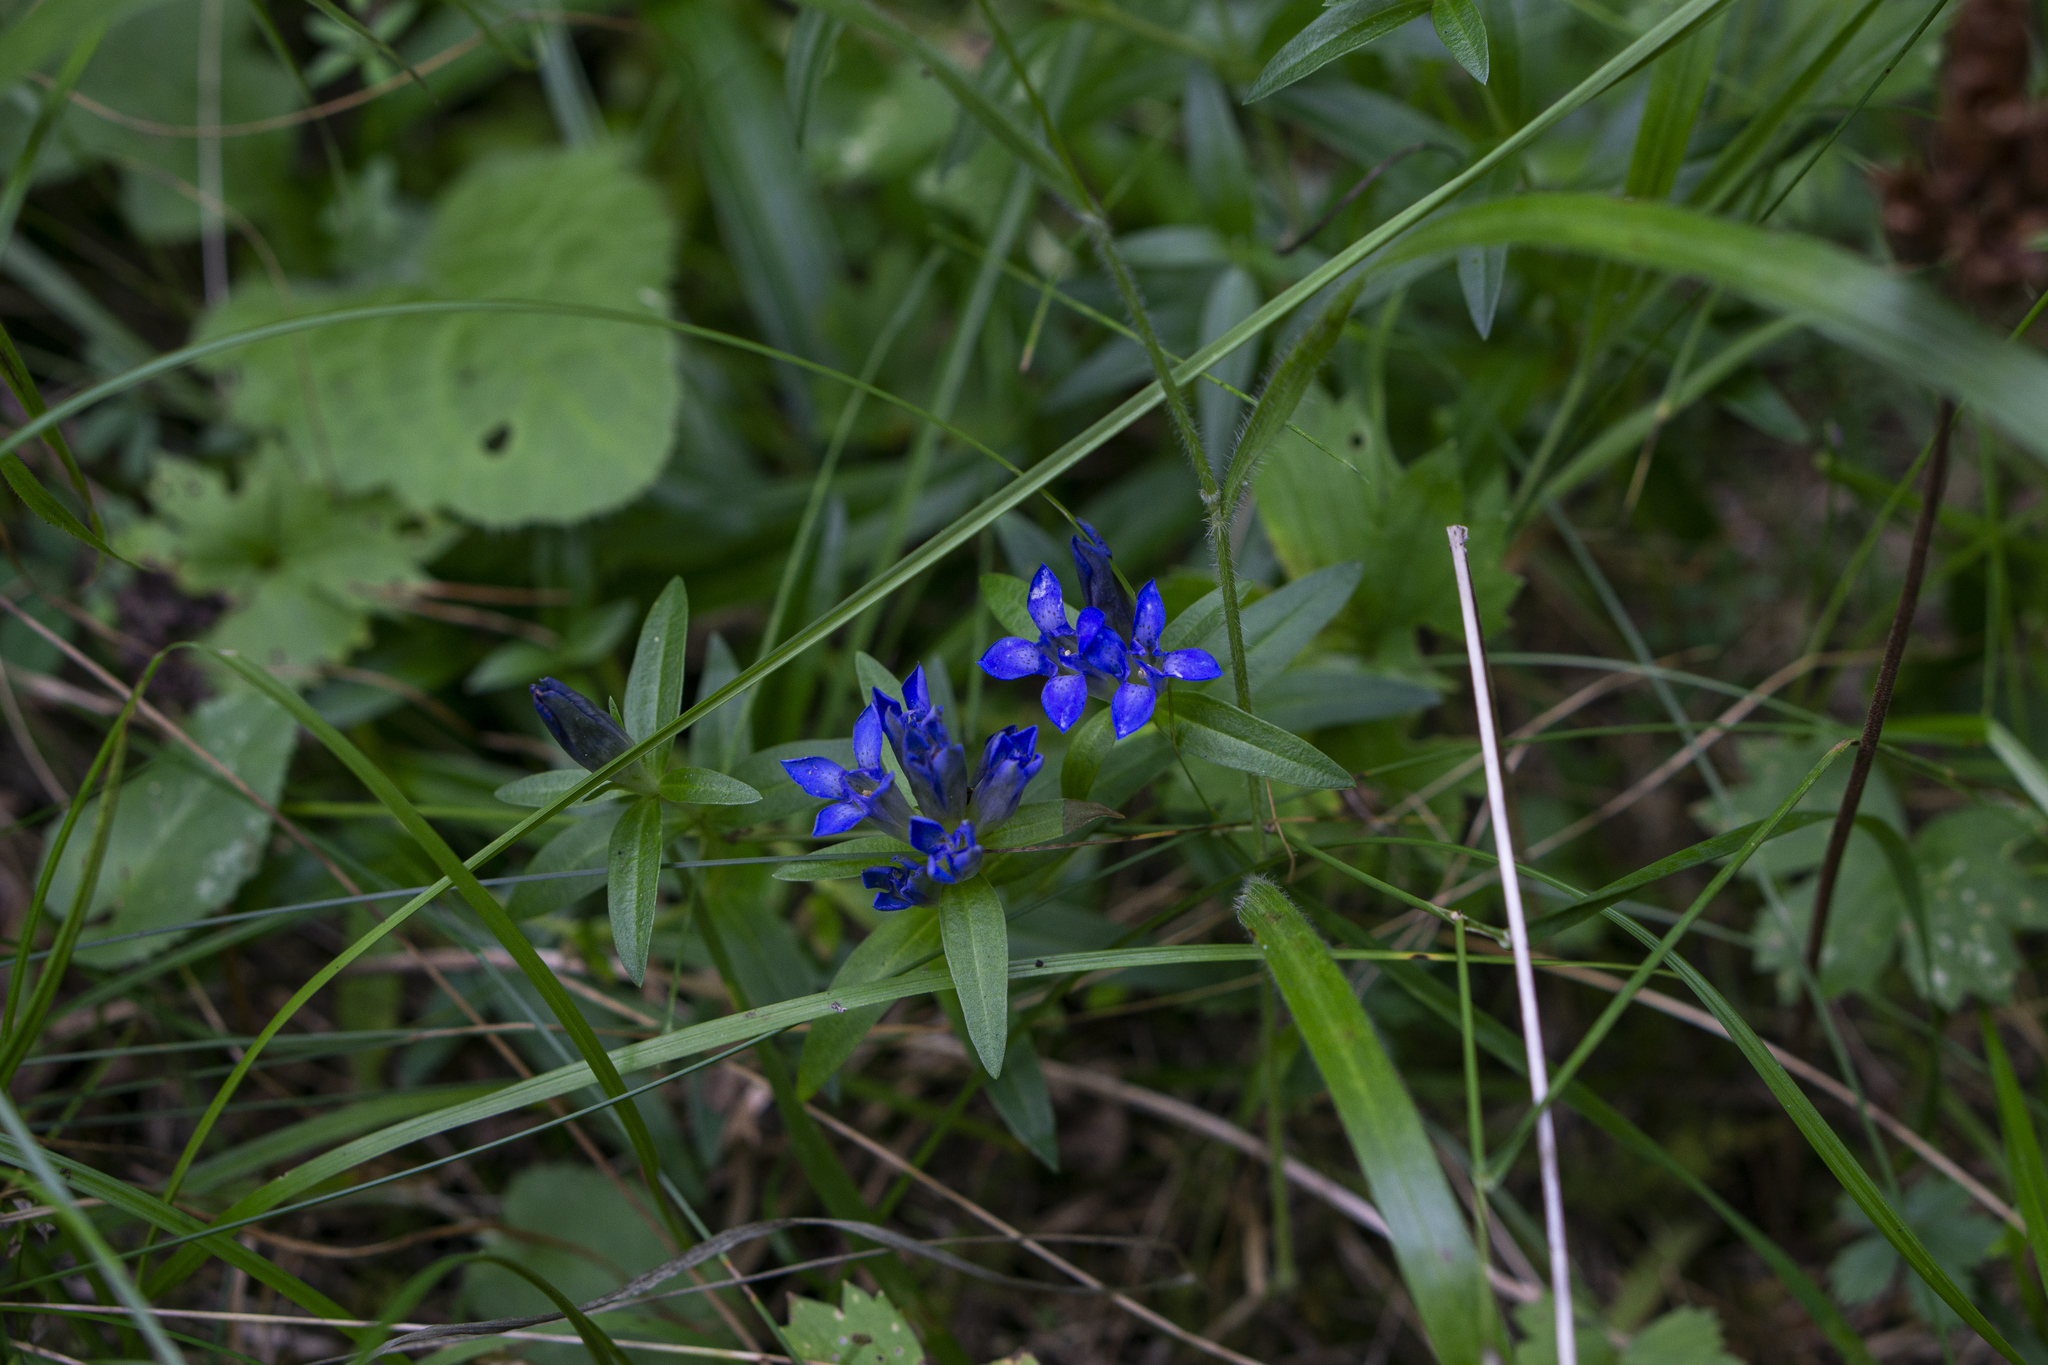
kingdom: Plantae
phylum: Tracheophyta
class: Magnoliopsida
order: Gentianales
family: Gentianaceae
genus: Gentiana
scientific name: Gentiana cruciata
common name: Cross gentian
